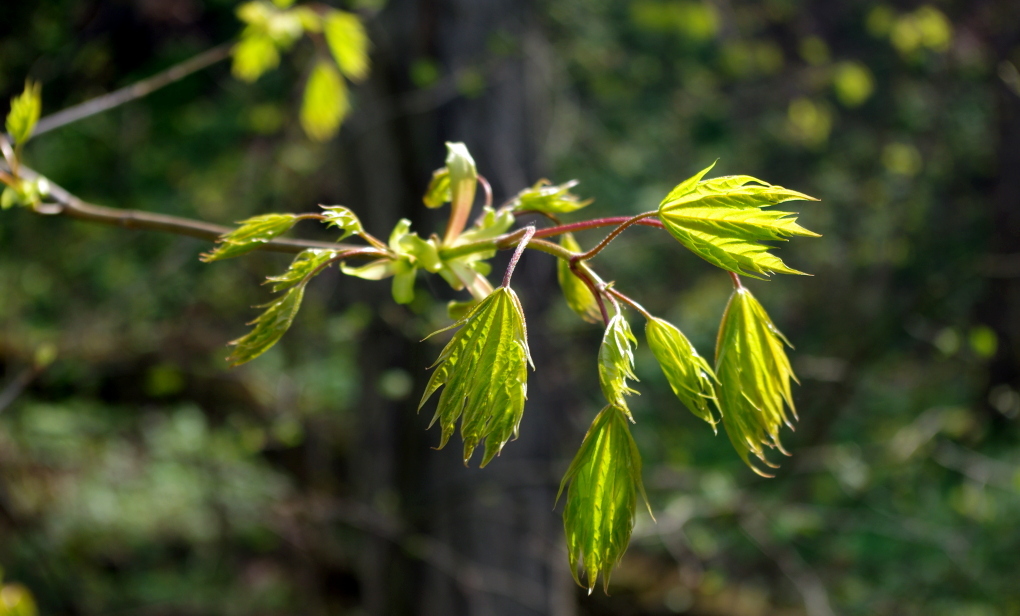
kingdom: Plantae
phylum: Tracheophyta
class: Magnoliopsida
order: Sapindales
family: Sapindaceae
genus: Acer
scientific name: Acer platanoides
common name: Norway maple
